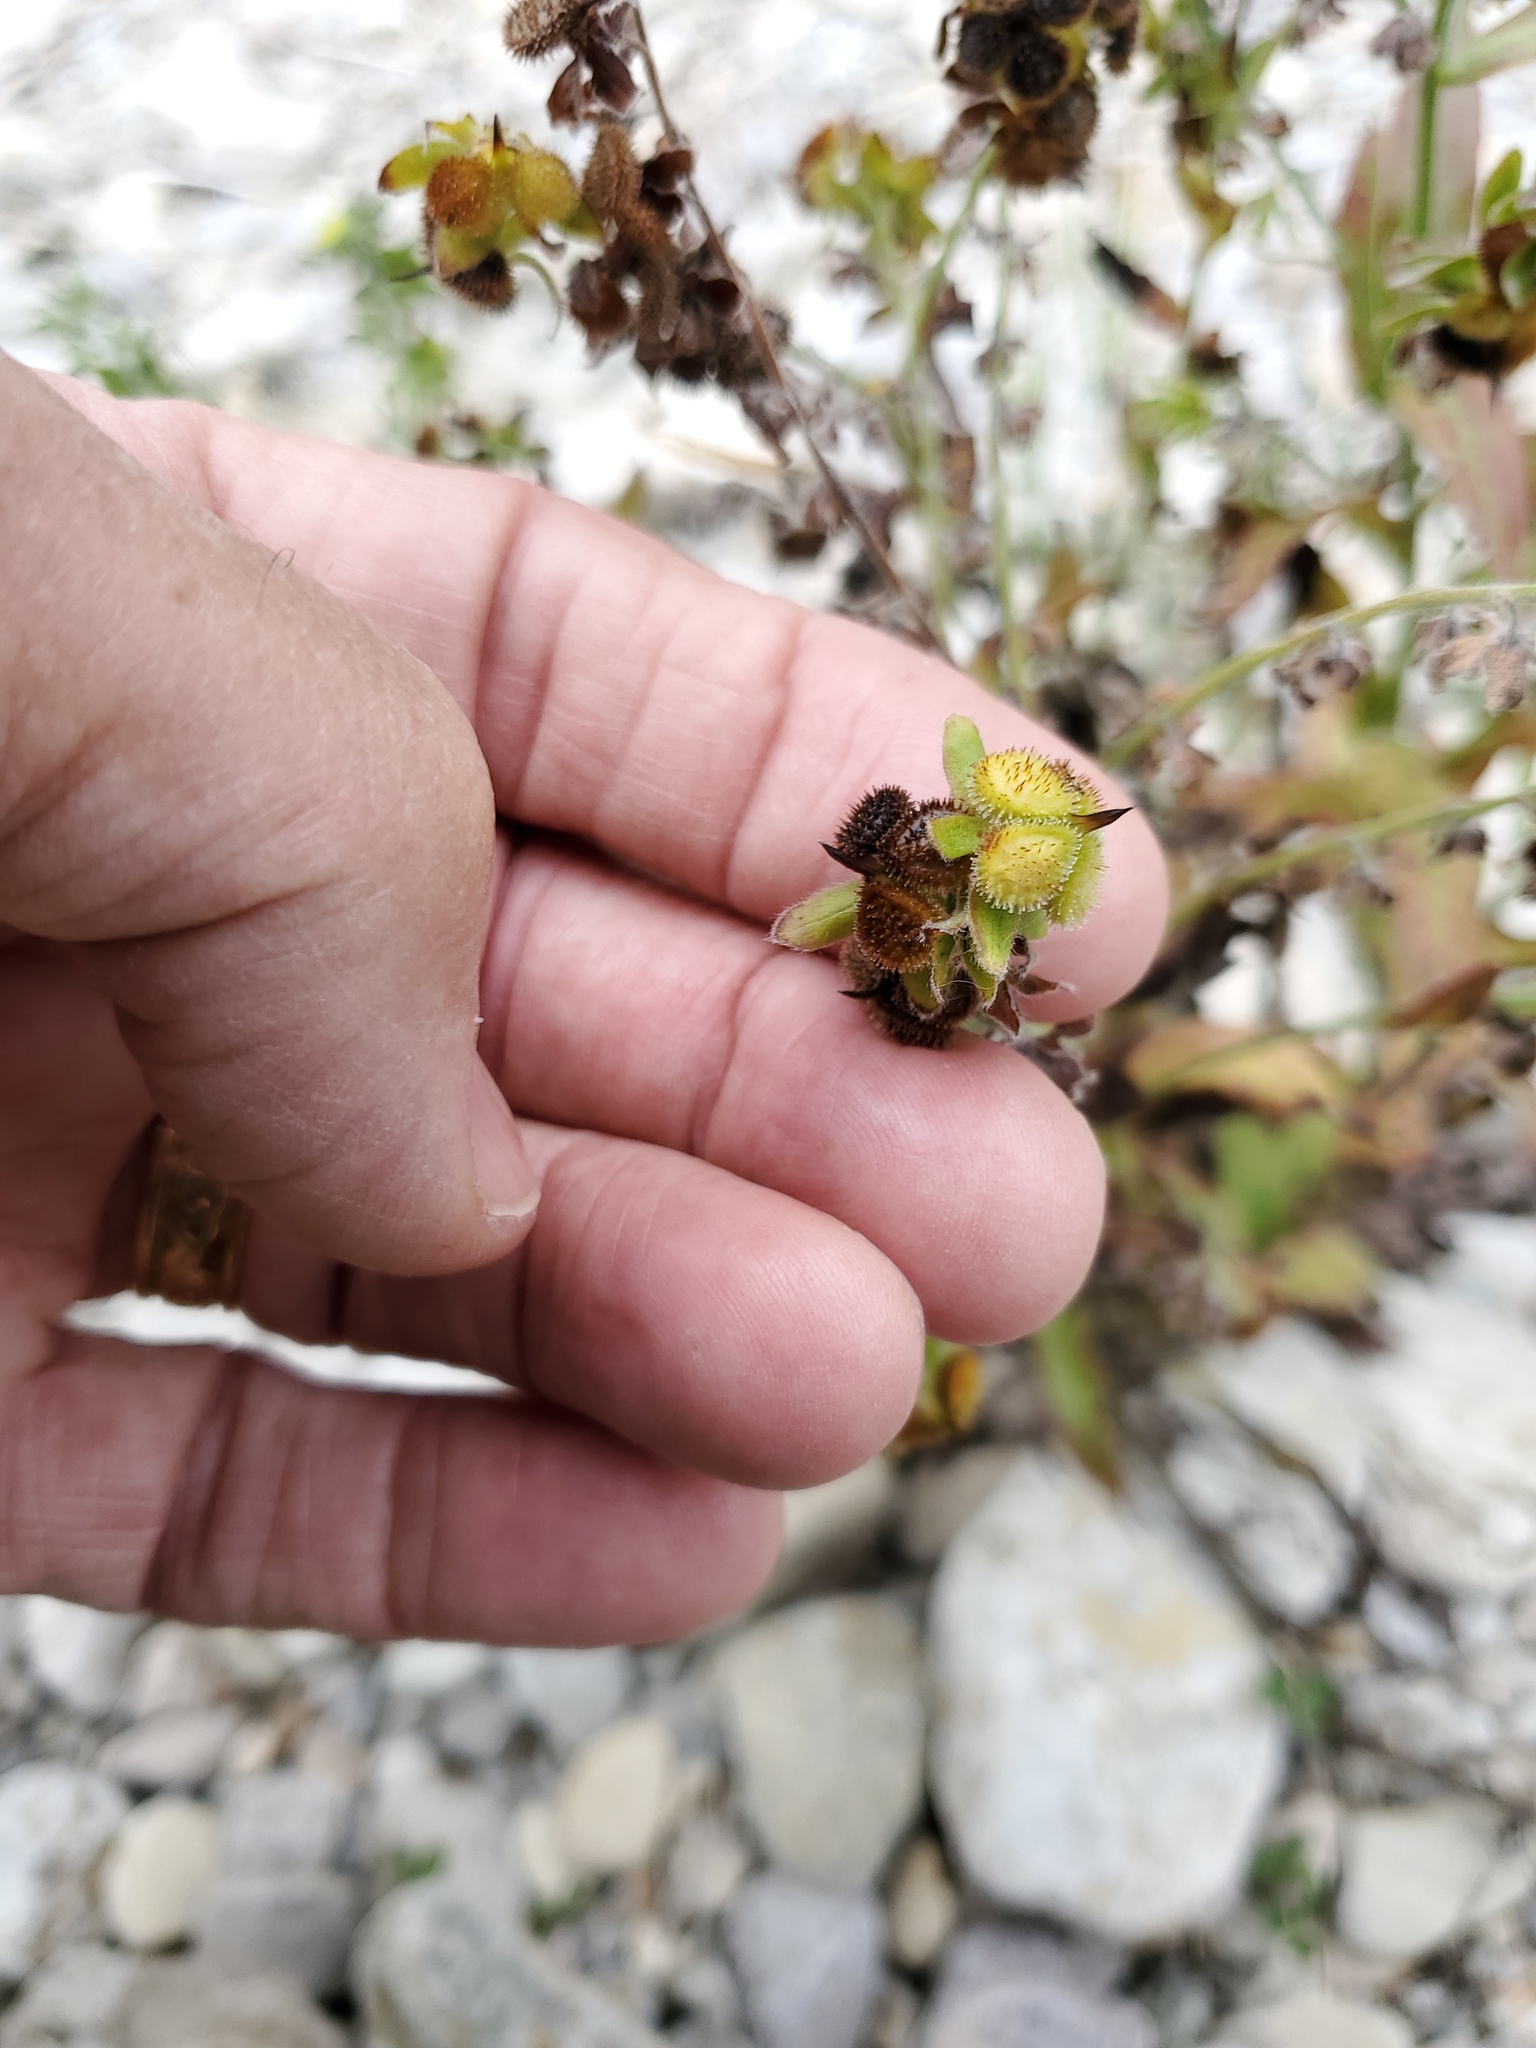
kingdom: Plantae
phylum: Tracheophyta
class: Magnoliopsida
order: Boraginales
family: Boraginaceae
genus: Cynoglossum
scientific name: Cynoglossum officinale
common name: Hound's-tongue
